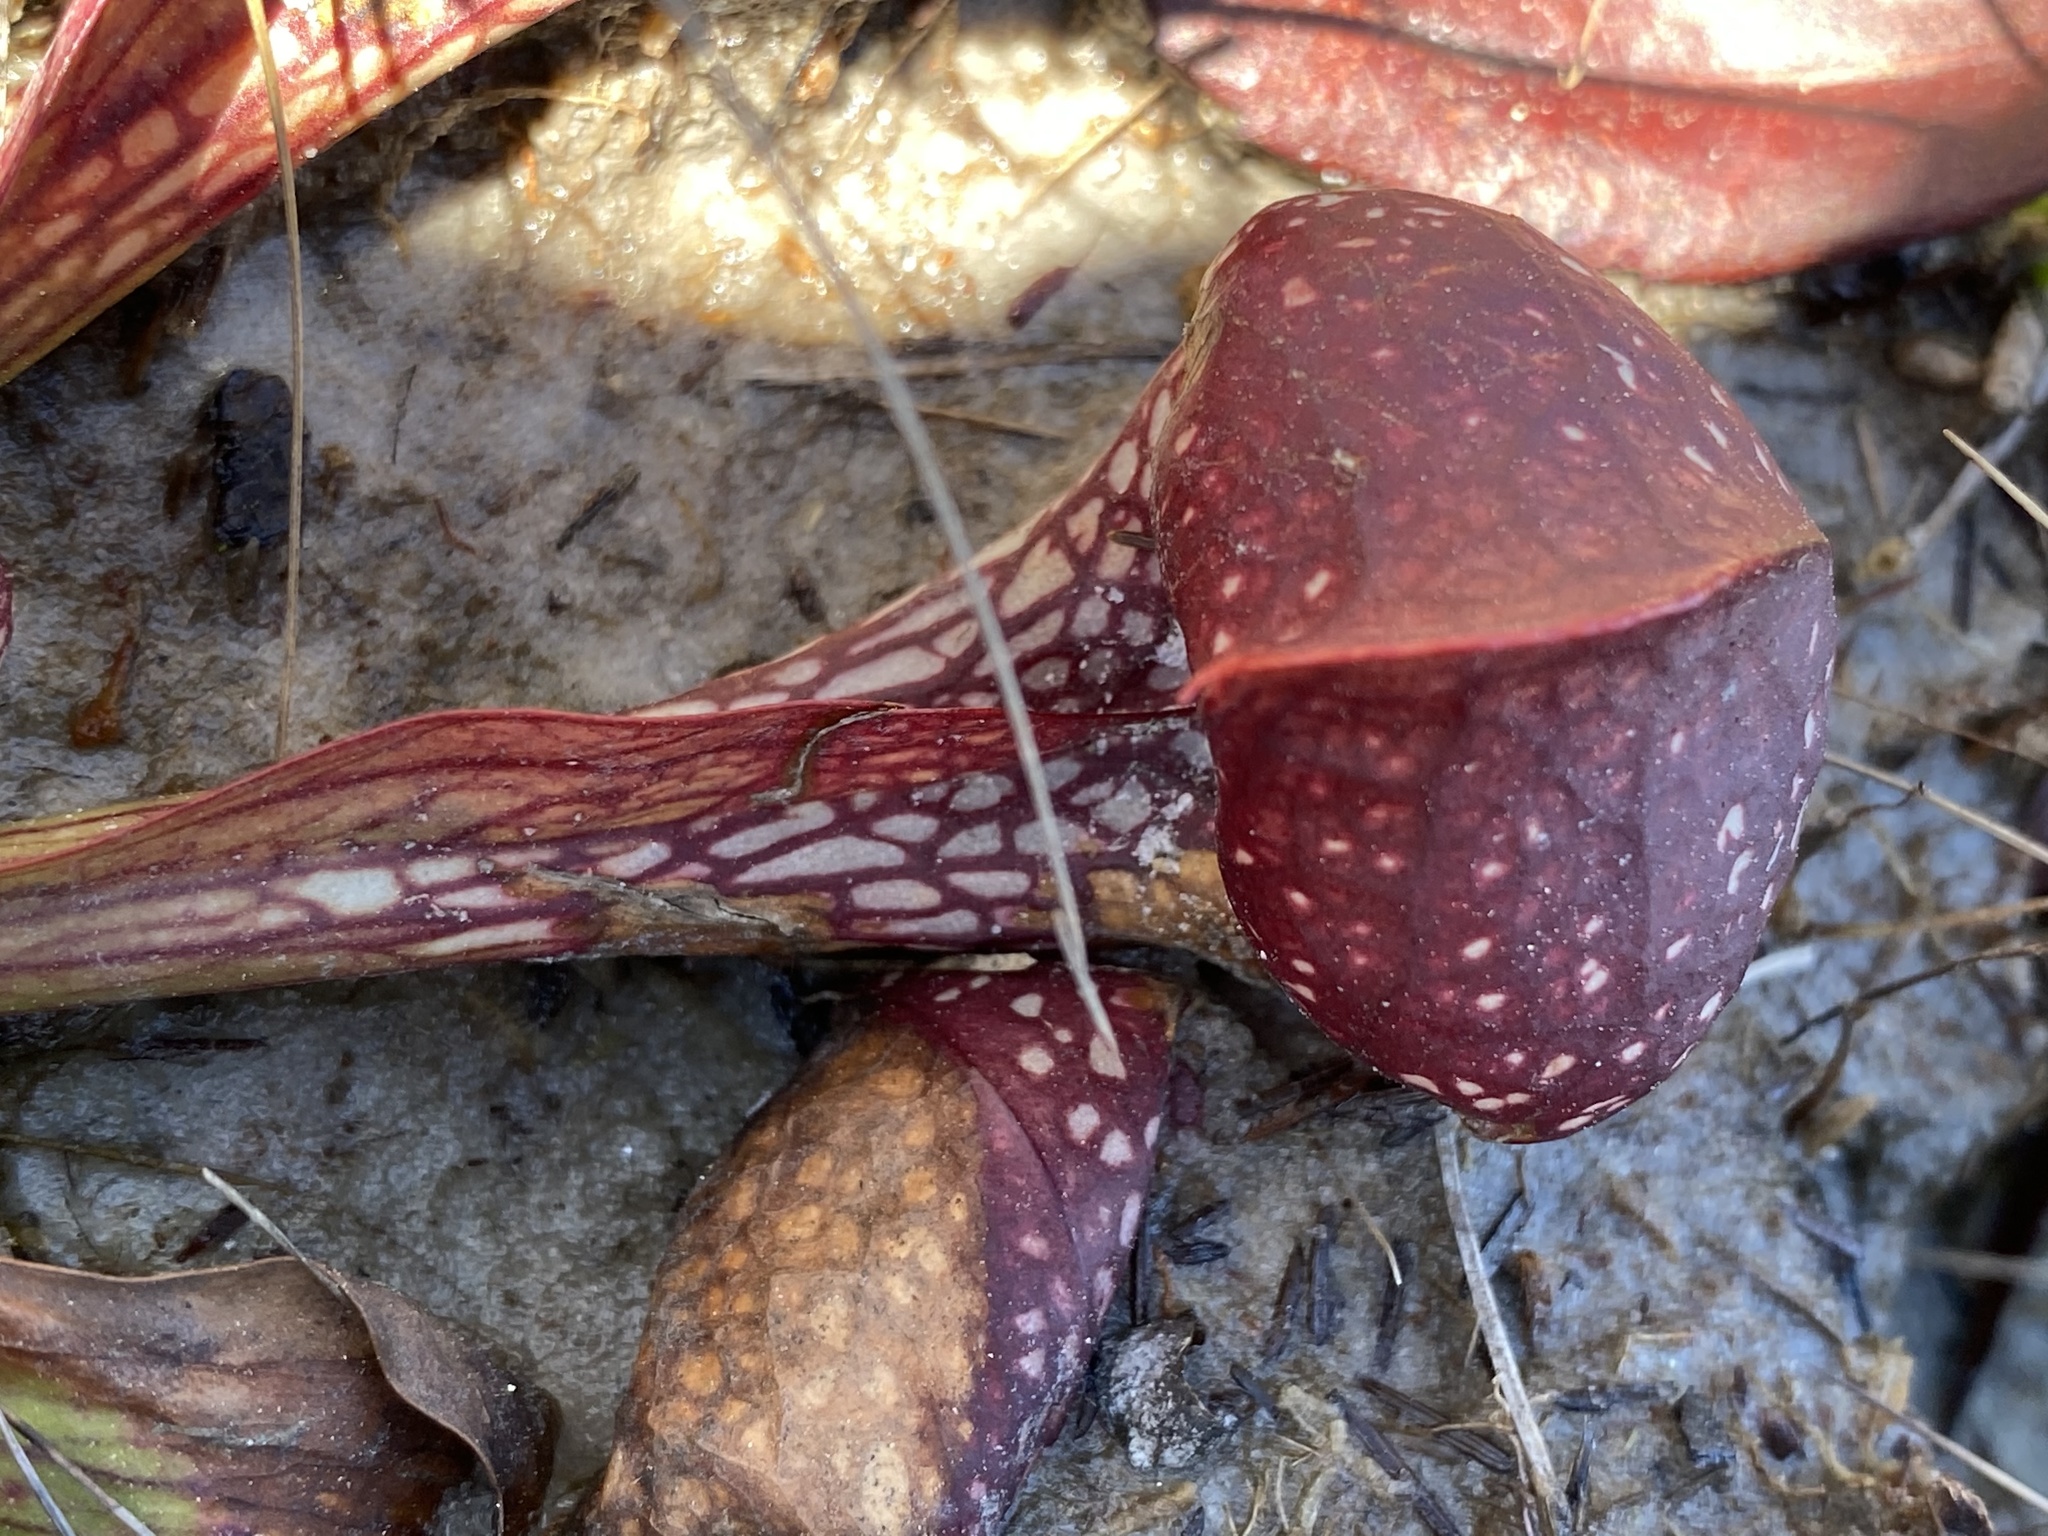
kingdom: Plantae
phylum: Tracheophyta
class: Magnoliopsida
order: Ericales
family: Sarraceniaceae
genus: Sarracenia
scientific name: Sarracenia psittacina
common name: Parrot pitcherplant
